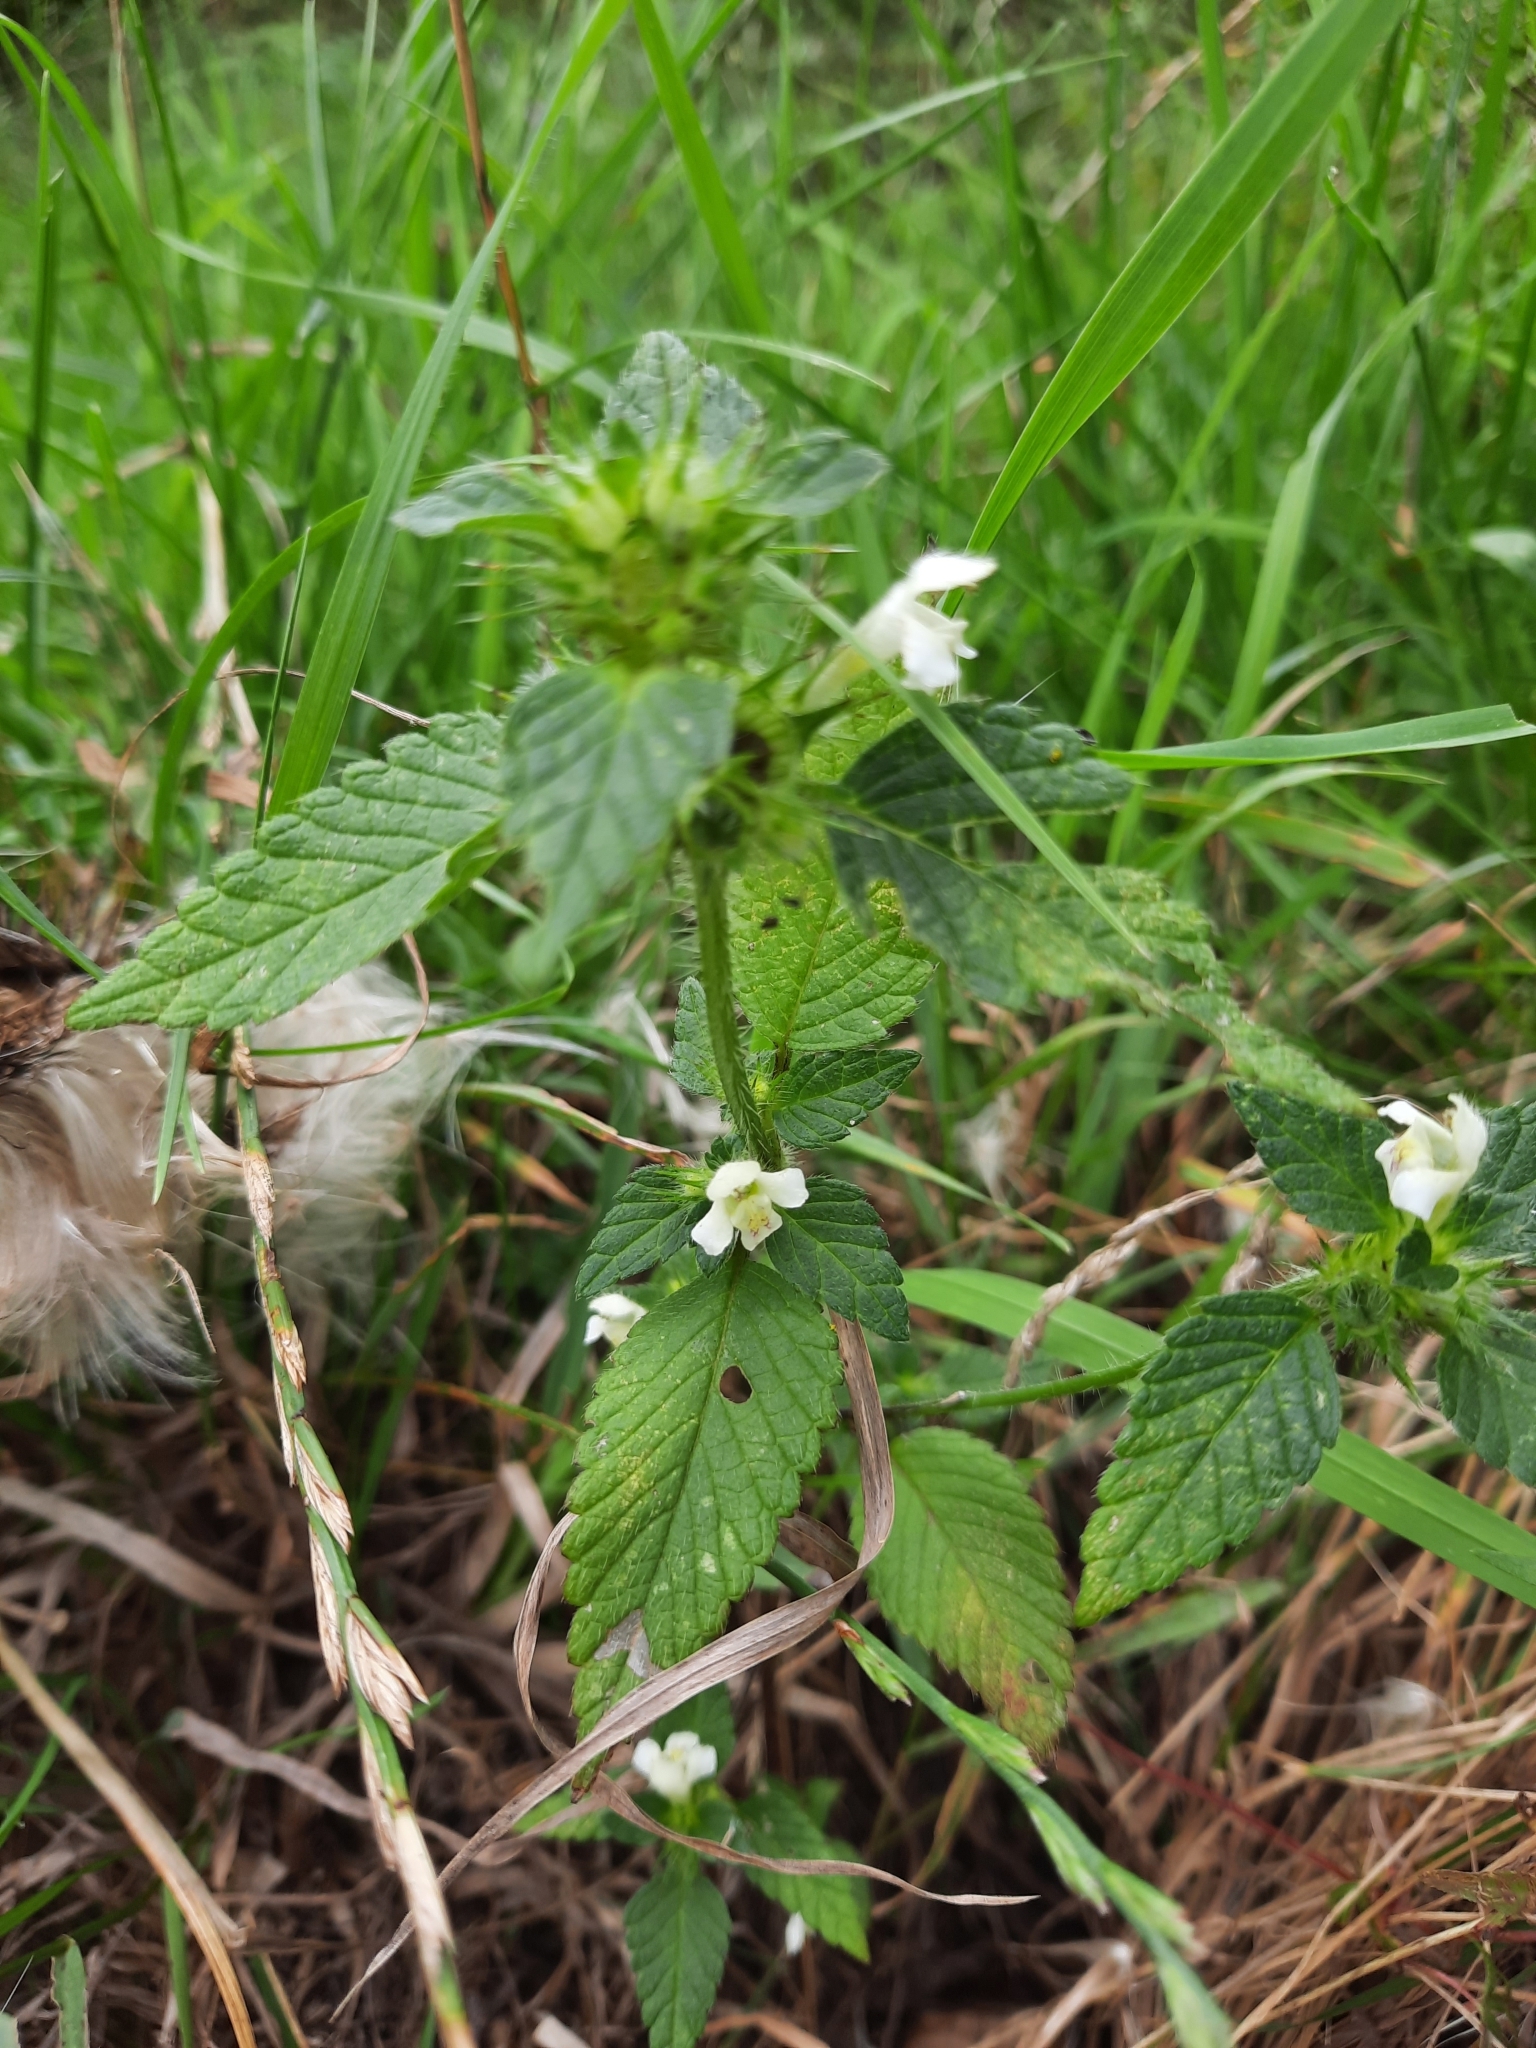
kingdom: Plantae
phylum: Tracheophyta
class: Magnoliopsida
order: Lamiales
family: Lamiaceae
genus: Galeopsis
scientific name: Galeopsis tetrahit
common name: Common hemp-nettle
